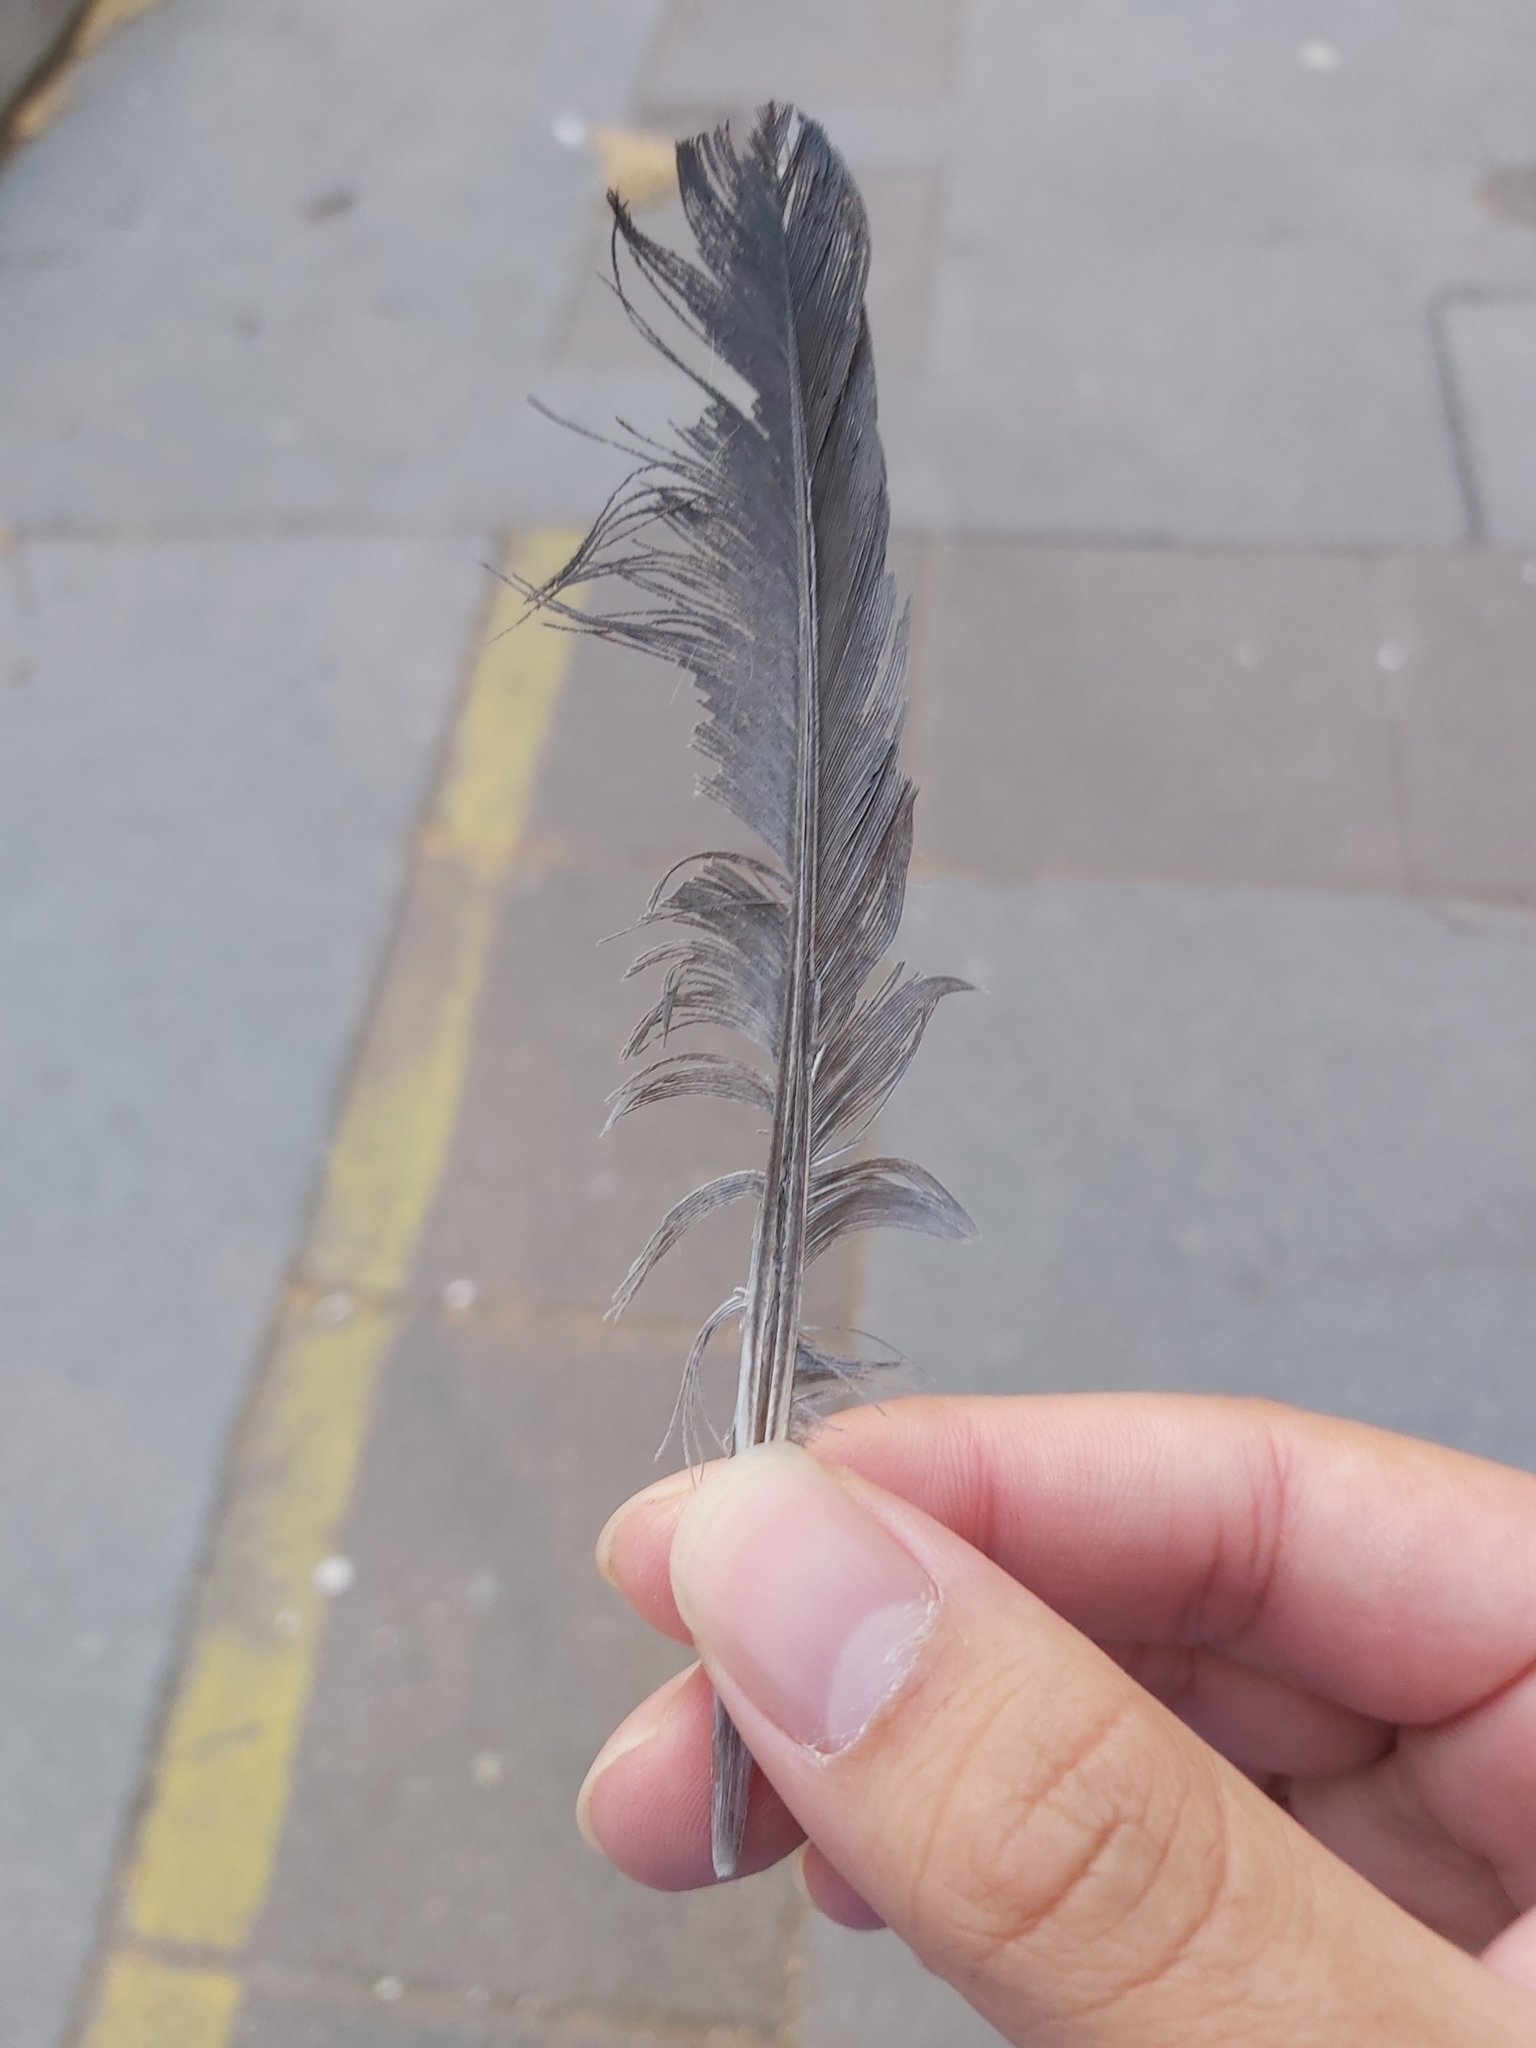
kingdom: Animalia
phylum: Chordata
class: Aves
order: Columbiformes
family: Columbidae
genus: Columba
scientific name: Columba livia
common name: Rock pigeon
